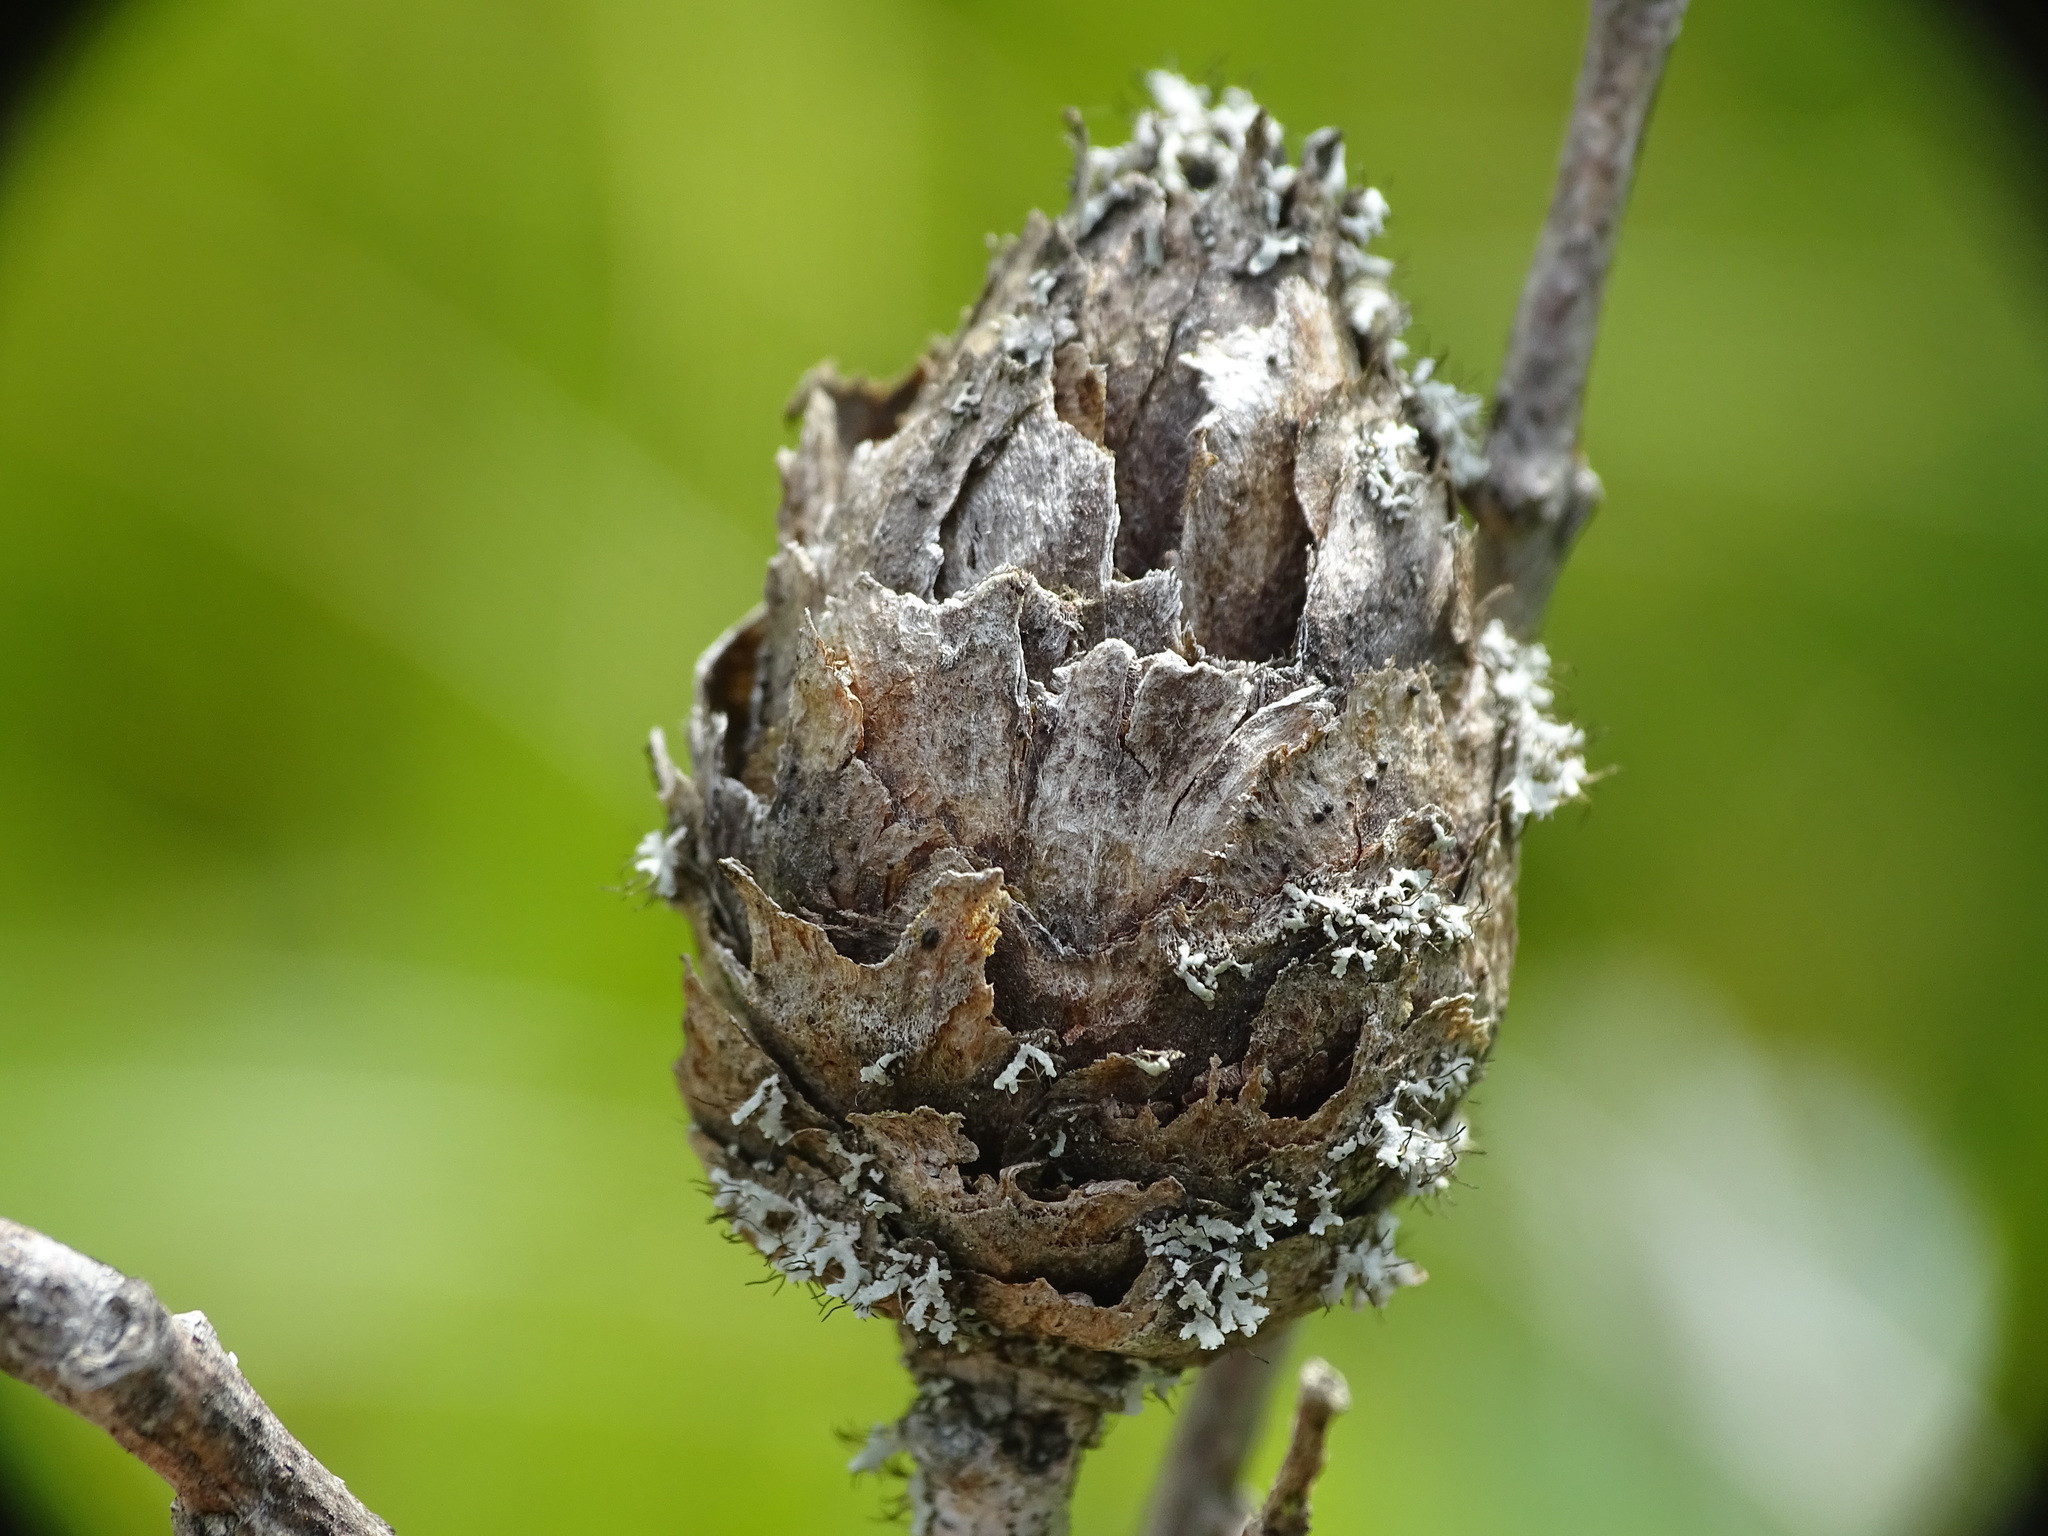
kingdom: Animalia
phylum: Arthropoda
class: Insecta
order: Diptera
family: Cecidomyiidae
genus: Rabdophaga
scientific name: Rabdophaga strobiloides
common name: Willow pinecone gall midge
